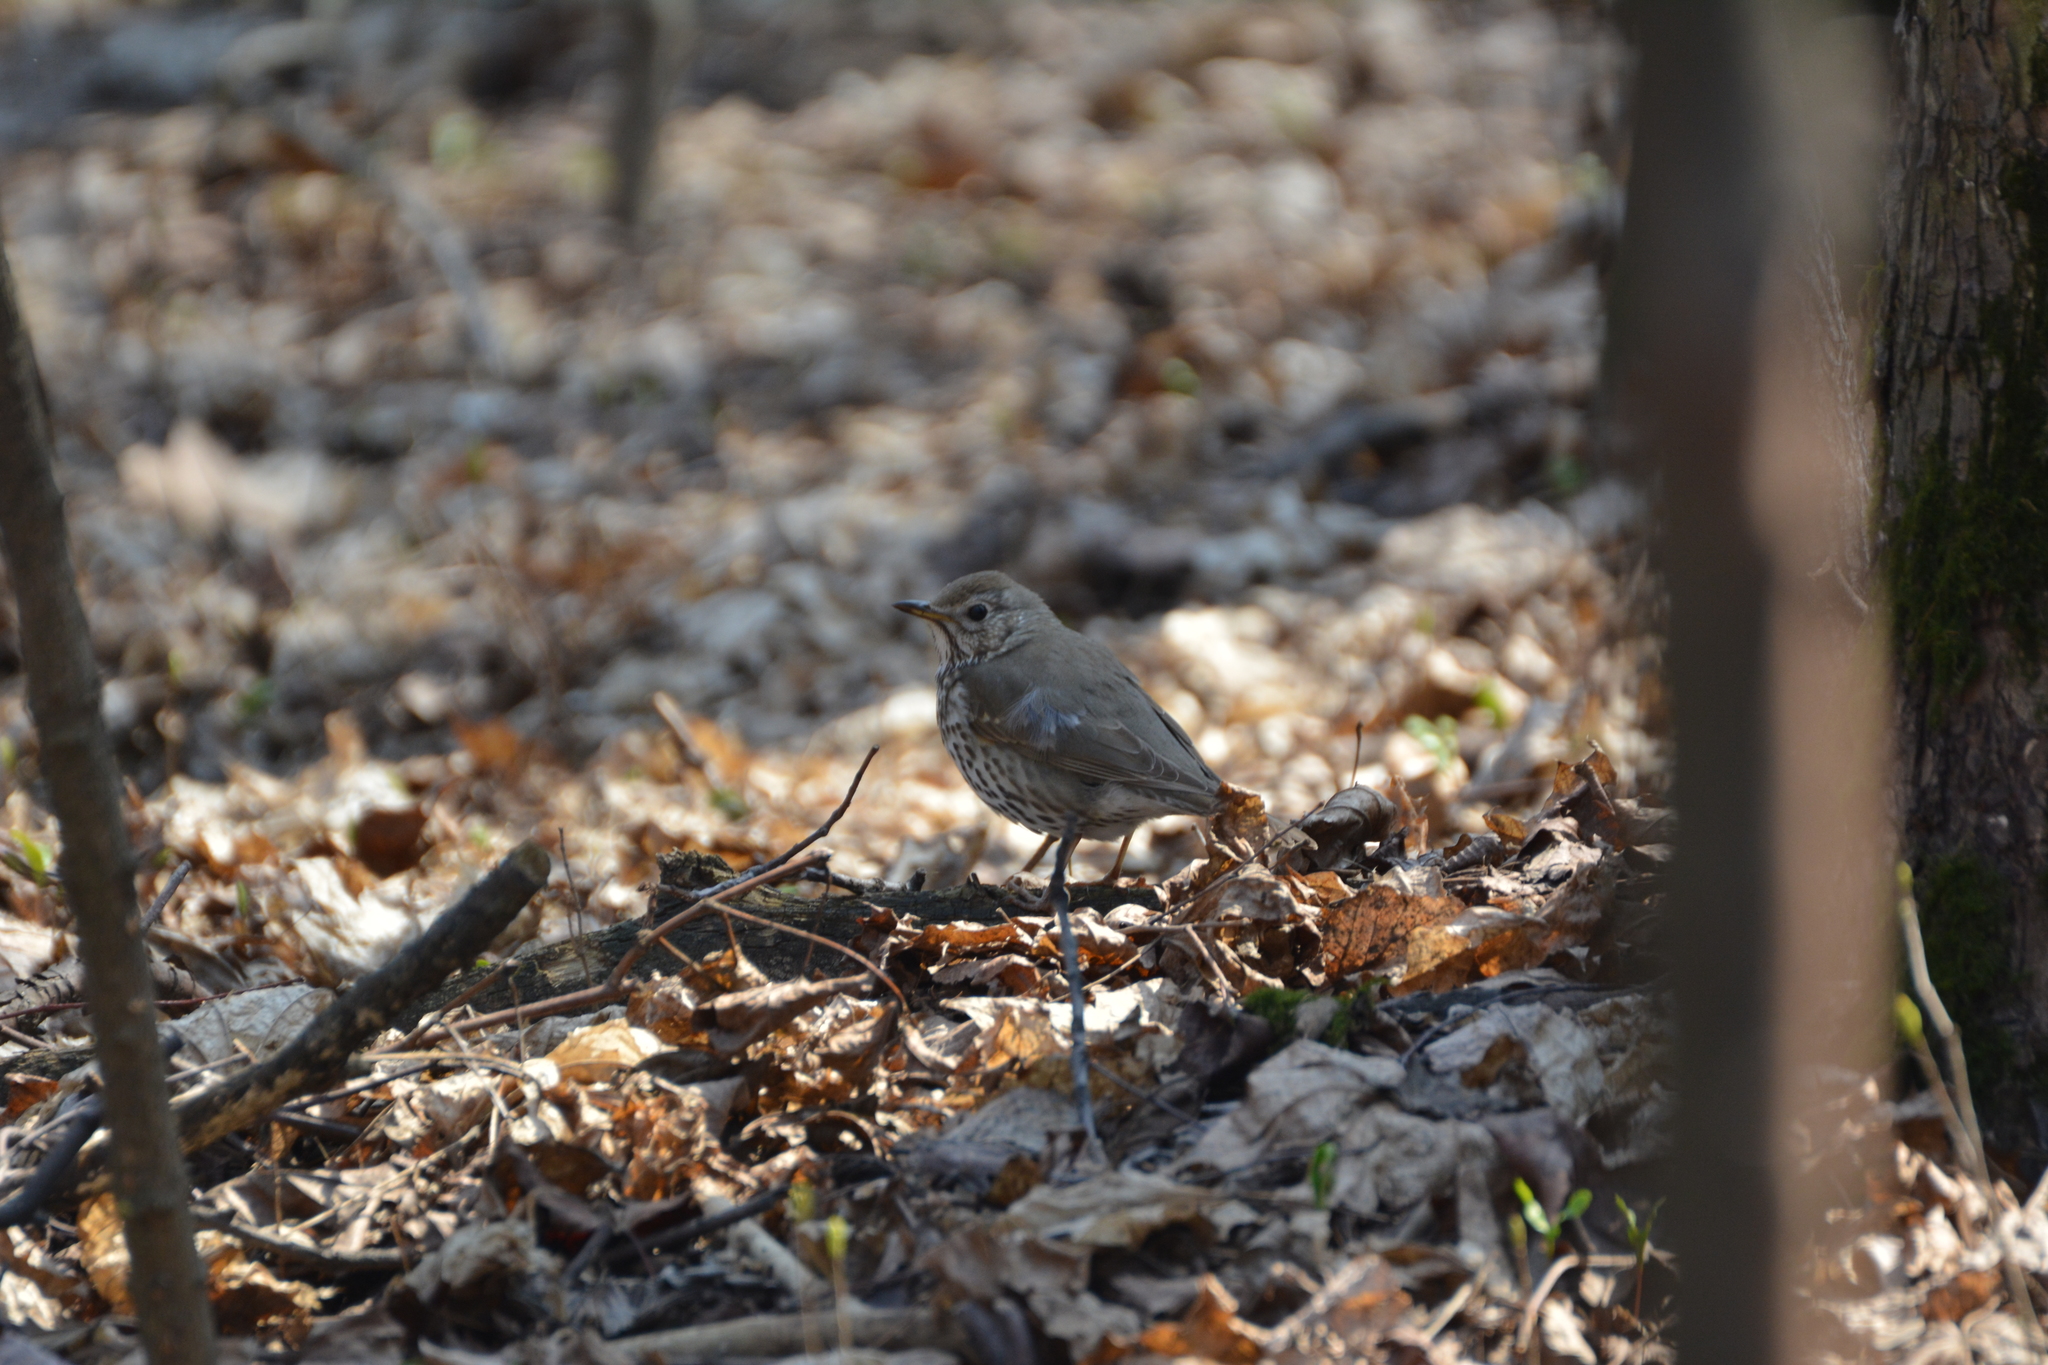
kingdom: Animalia
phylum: Chordata
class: Aves
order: Passeriformes
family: Turdidae
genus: Turdus
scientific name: Turdus philomelos
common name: Song thrush
